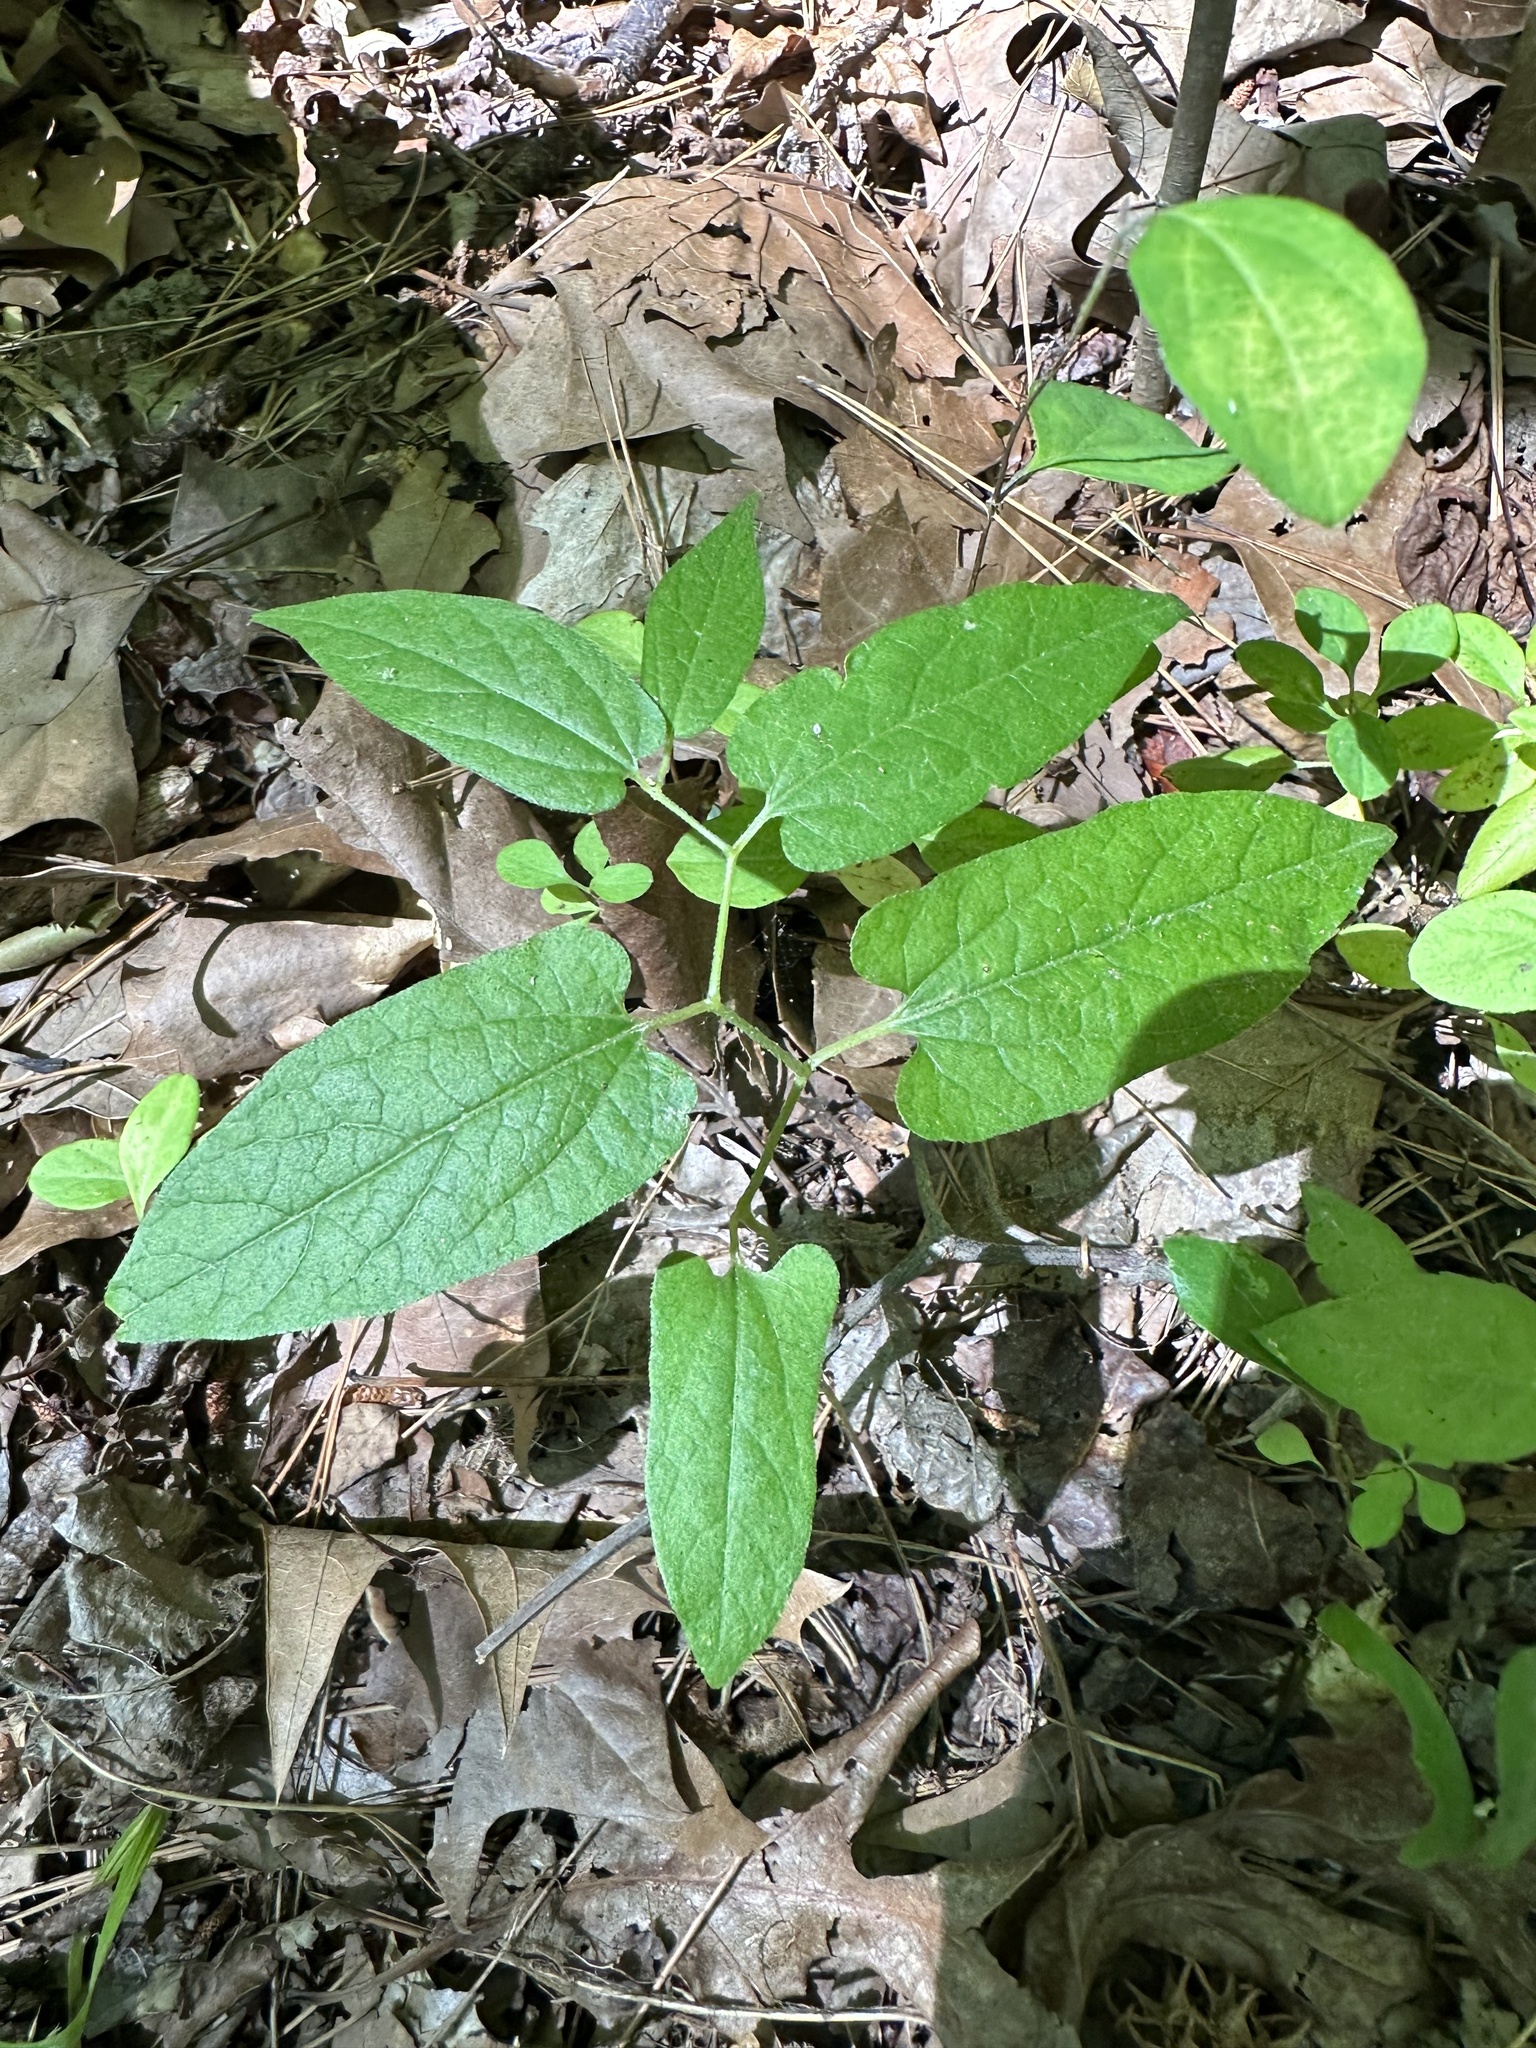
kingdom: Plantae
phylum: Tracheophyta
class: Magnoliopsida
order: Piperales
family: Aristolochiaceae
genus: Endodeca
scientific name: Endodeca serpentaria
